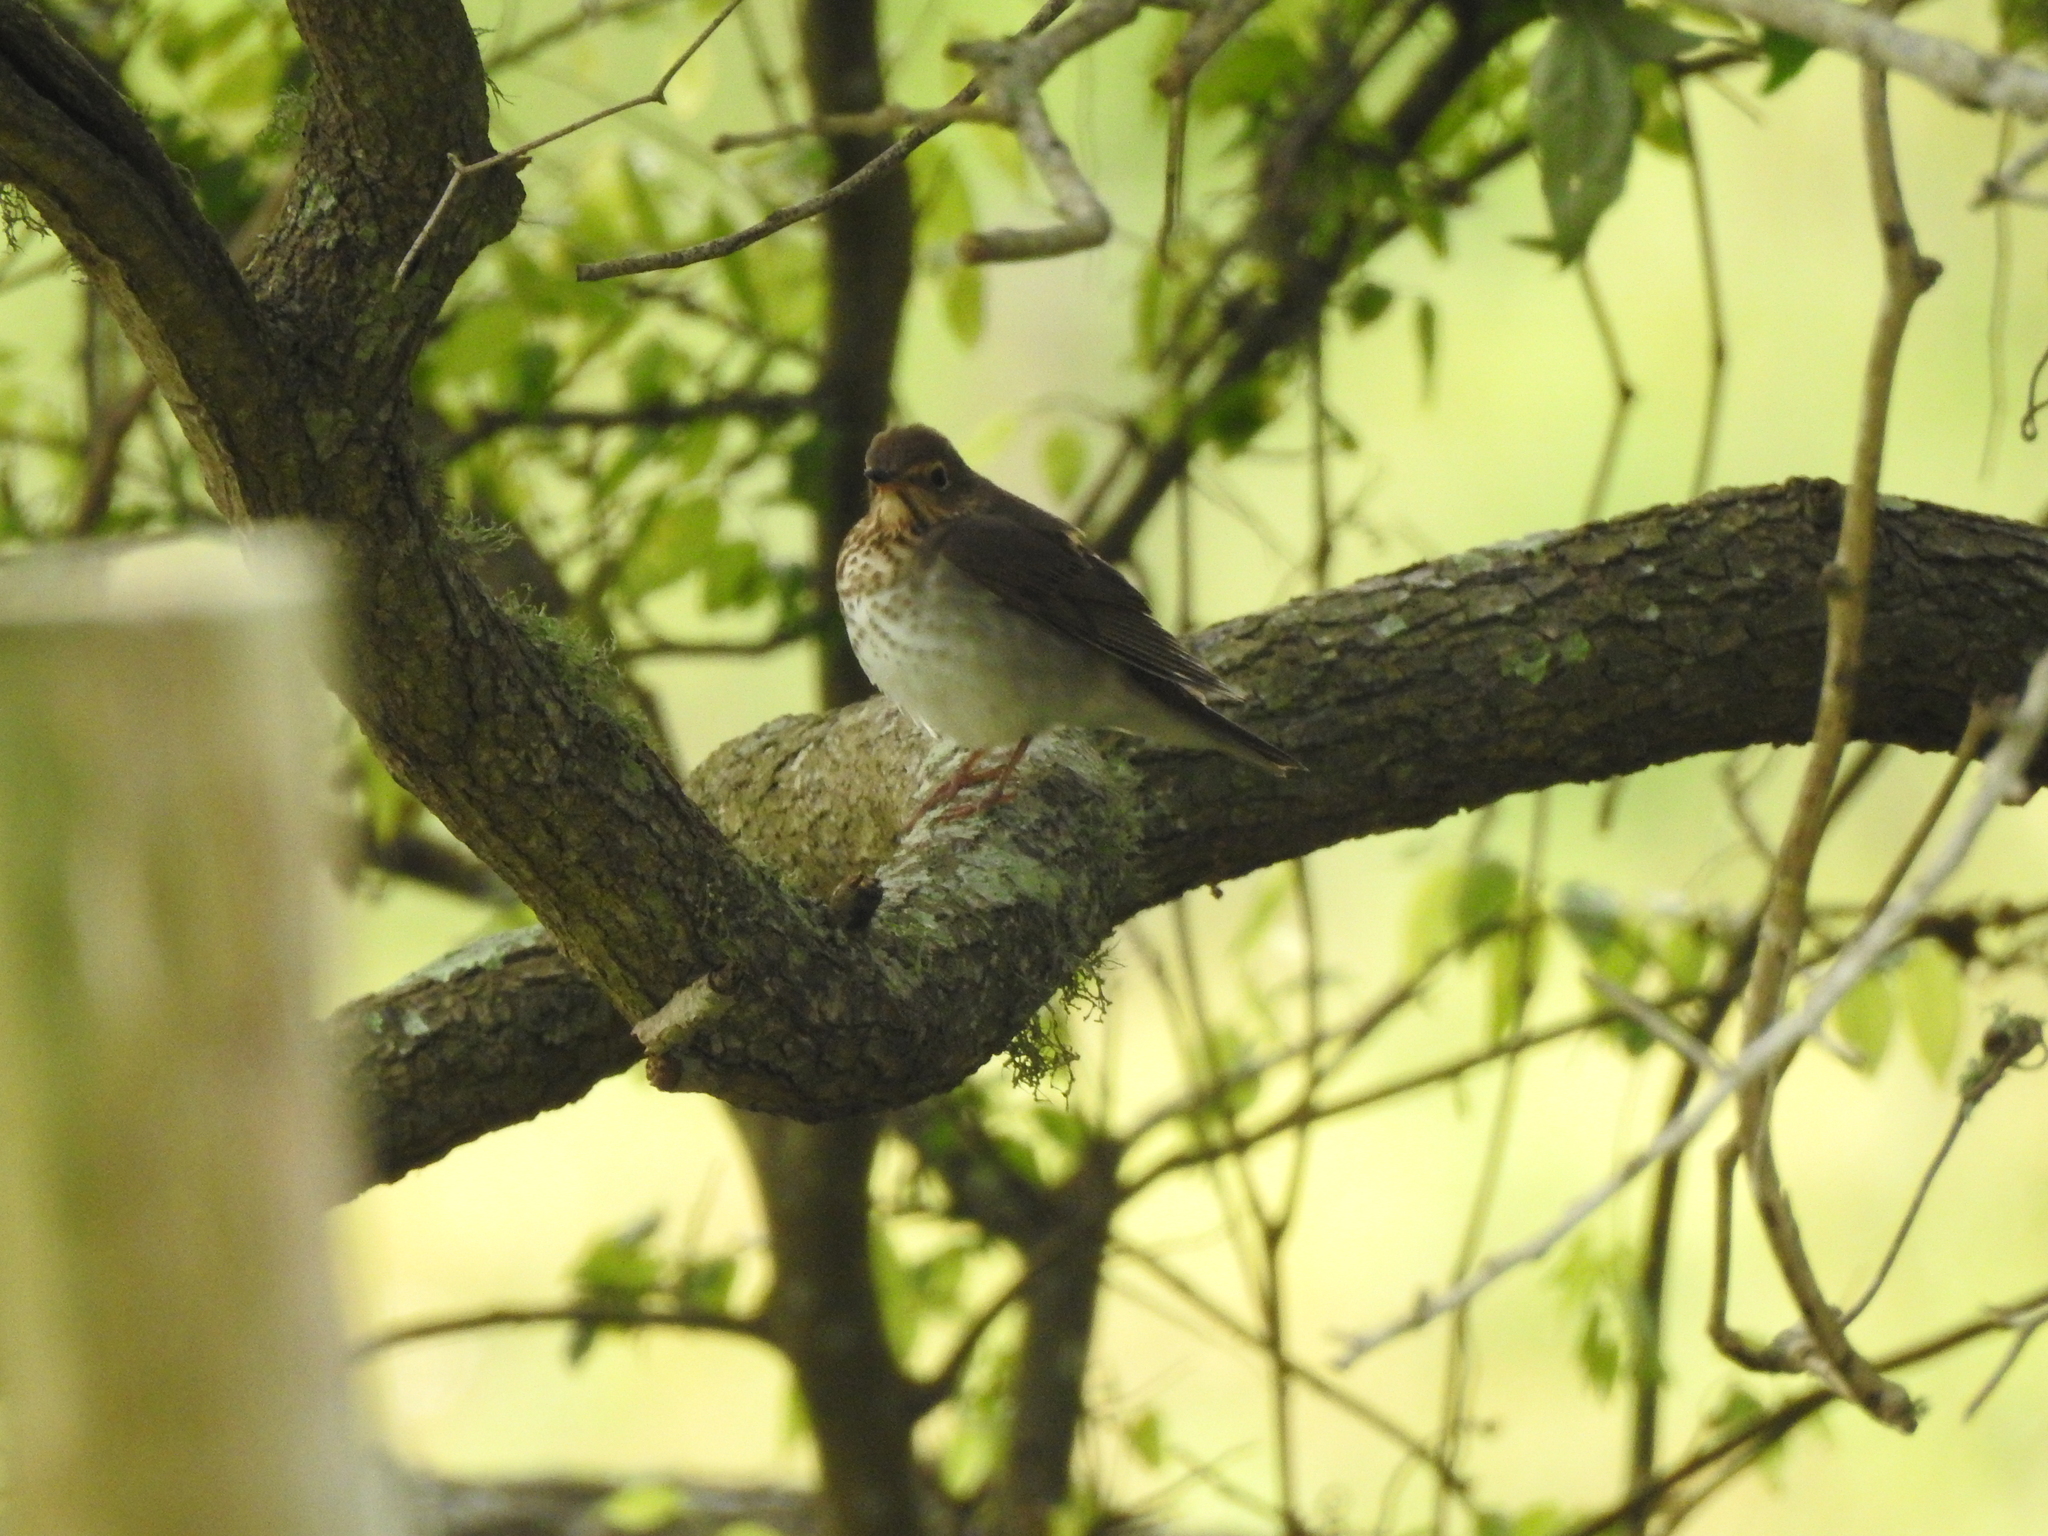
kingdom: Animalia
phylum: Chordata
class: Aves
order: Passeriformes
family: Turdidae
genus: Catharus
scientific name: Catharus ustulatus
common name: Swainson's thrush
